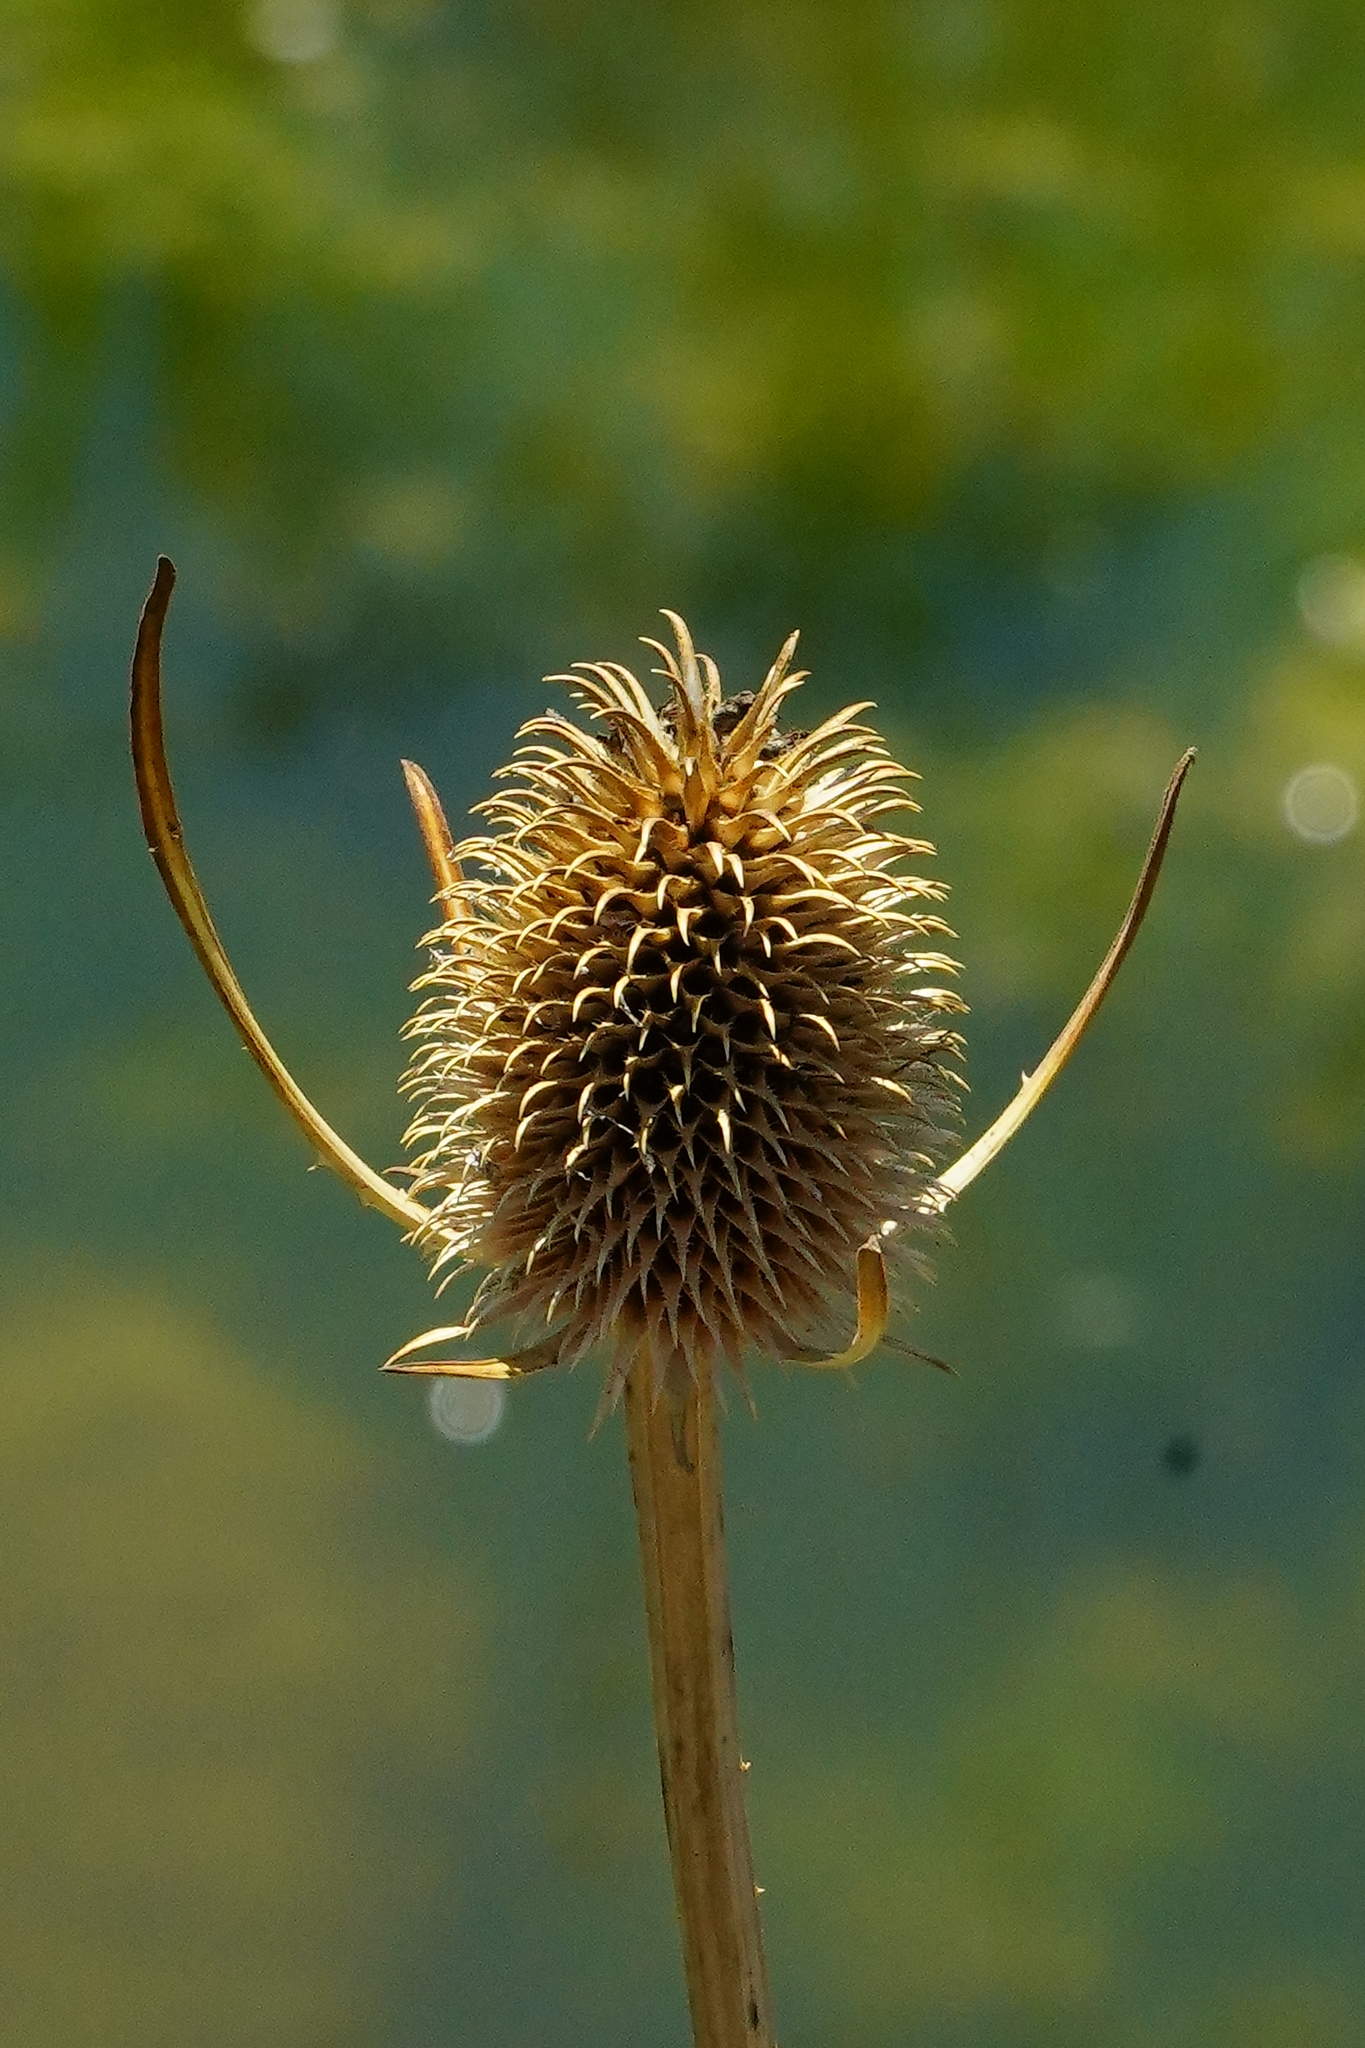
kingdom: Plantae
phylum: Tracheophyta
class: Magnoliopsida
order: Dipsacales
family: Caprifoliaceae
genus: Dipsacus
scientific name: Dipsacus sativus
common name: Fuller's teasel
